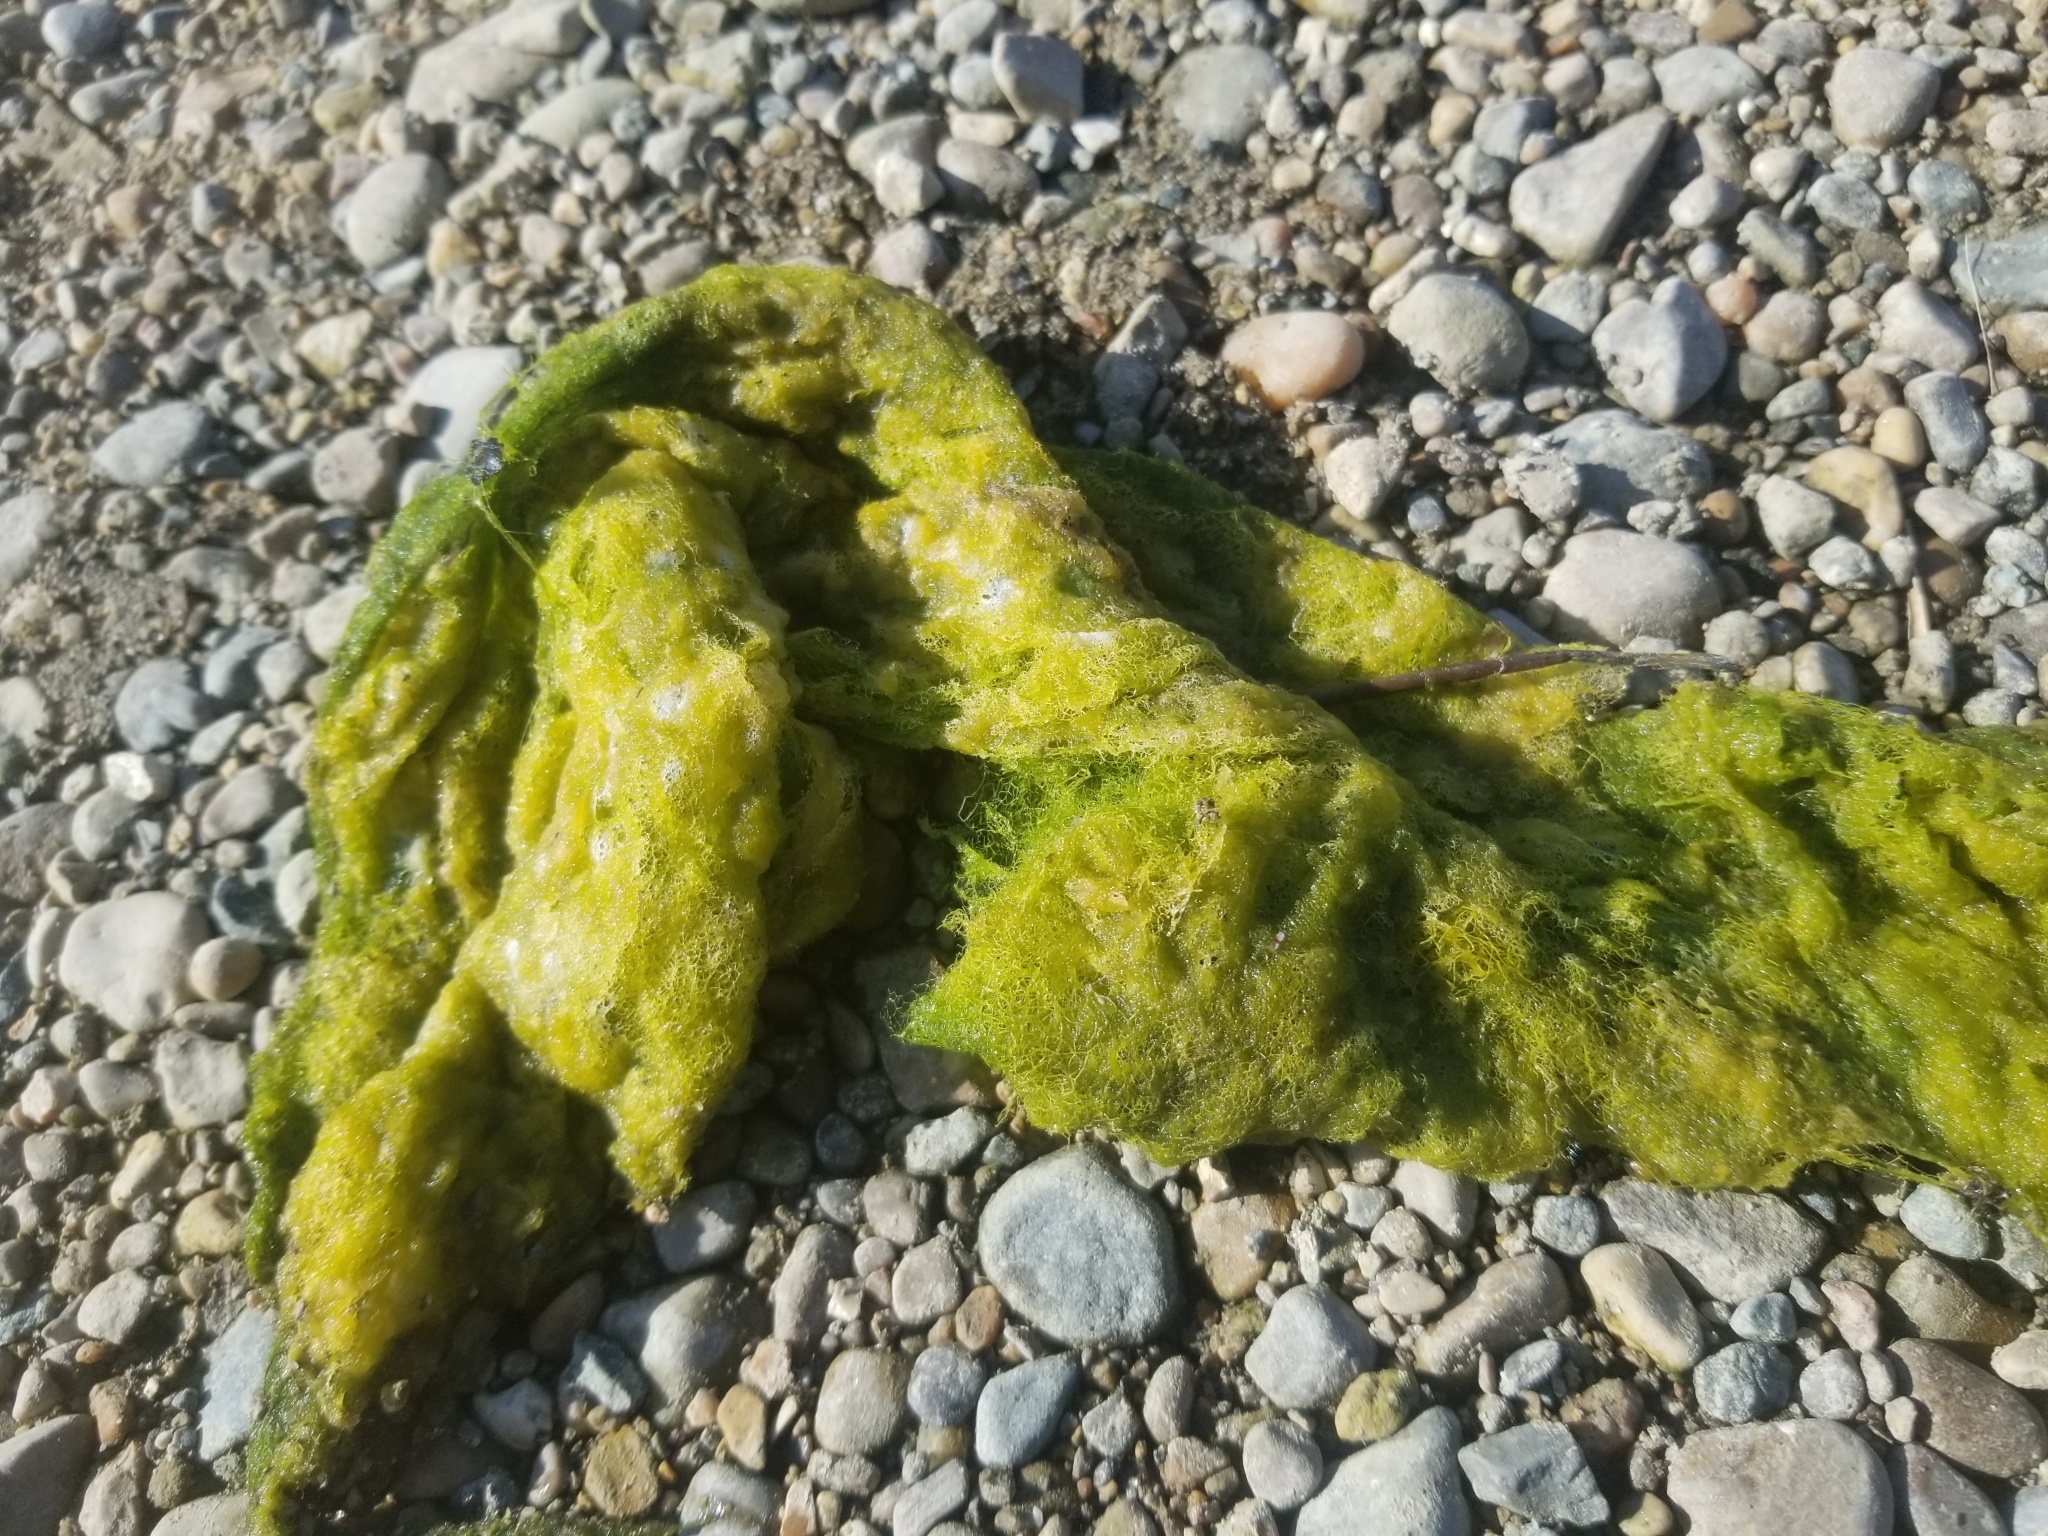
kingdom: Plantae
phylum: Chlorophyta
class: Chlorophyceae
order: Sphaeropleales
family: Hydrodictyaceae
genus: Hydrodictyon
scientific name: Hydrodictyon reticulatum
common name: Water net
